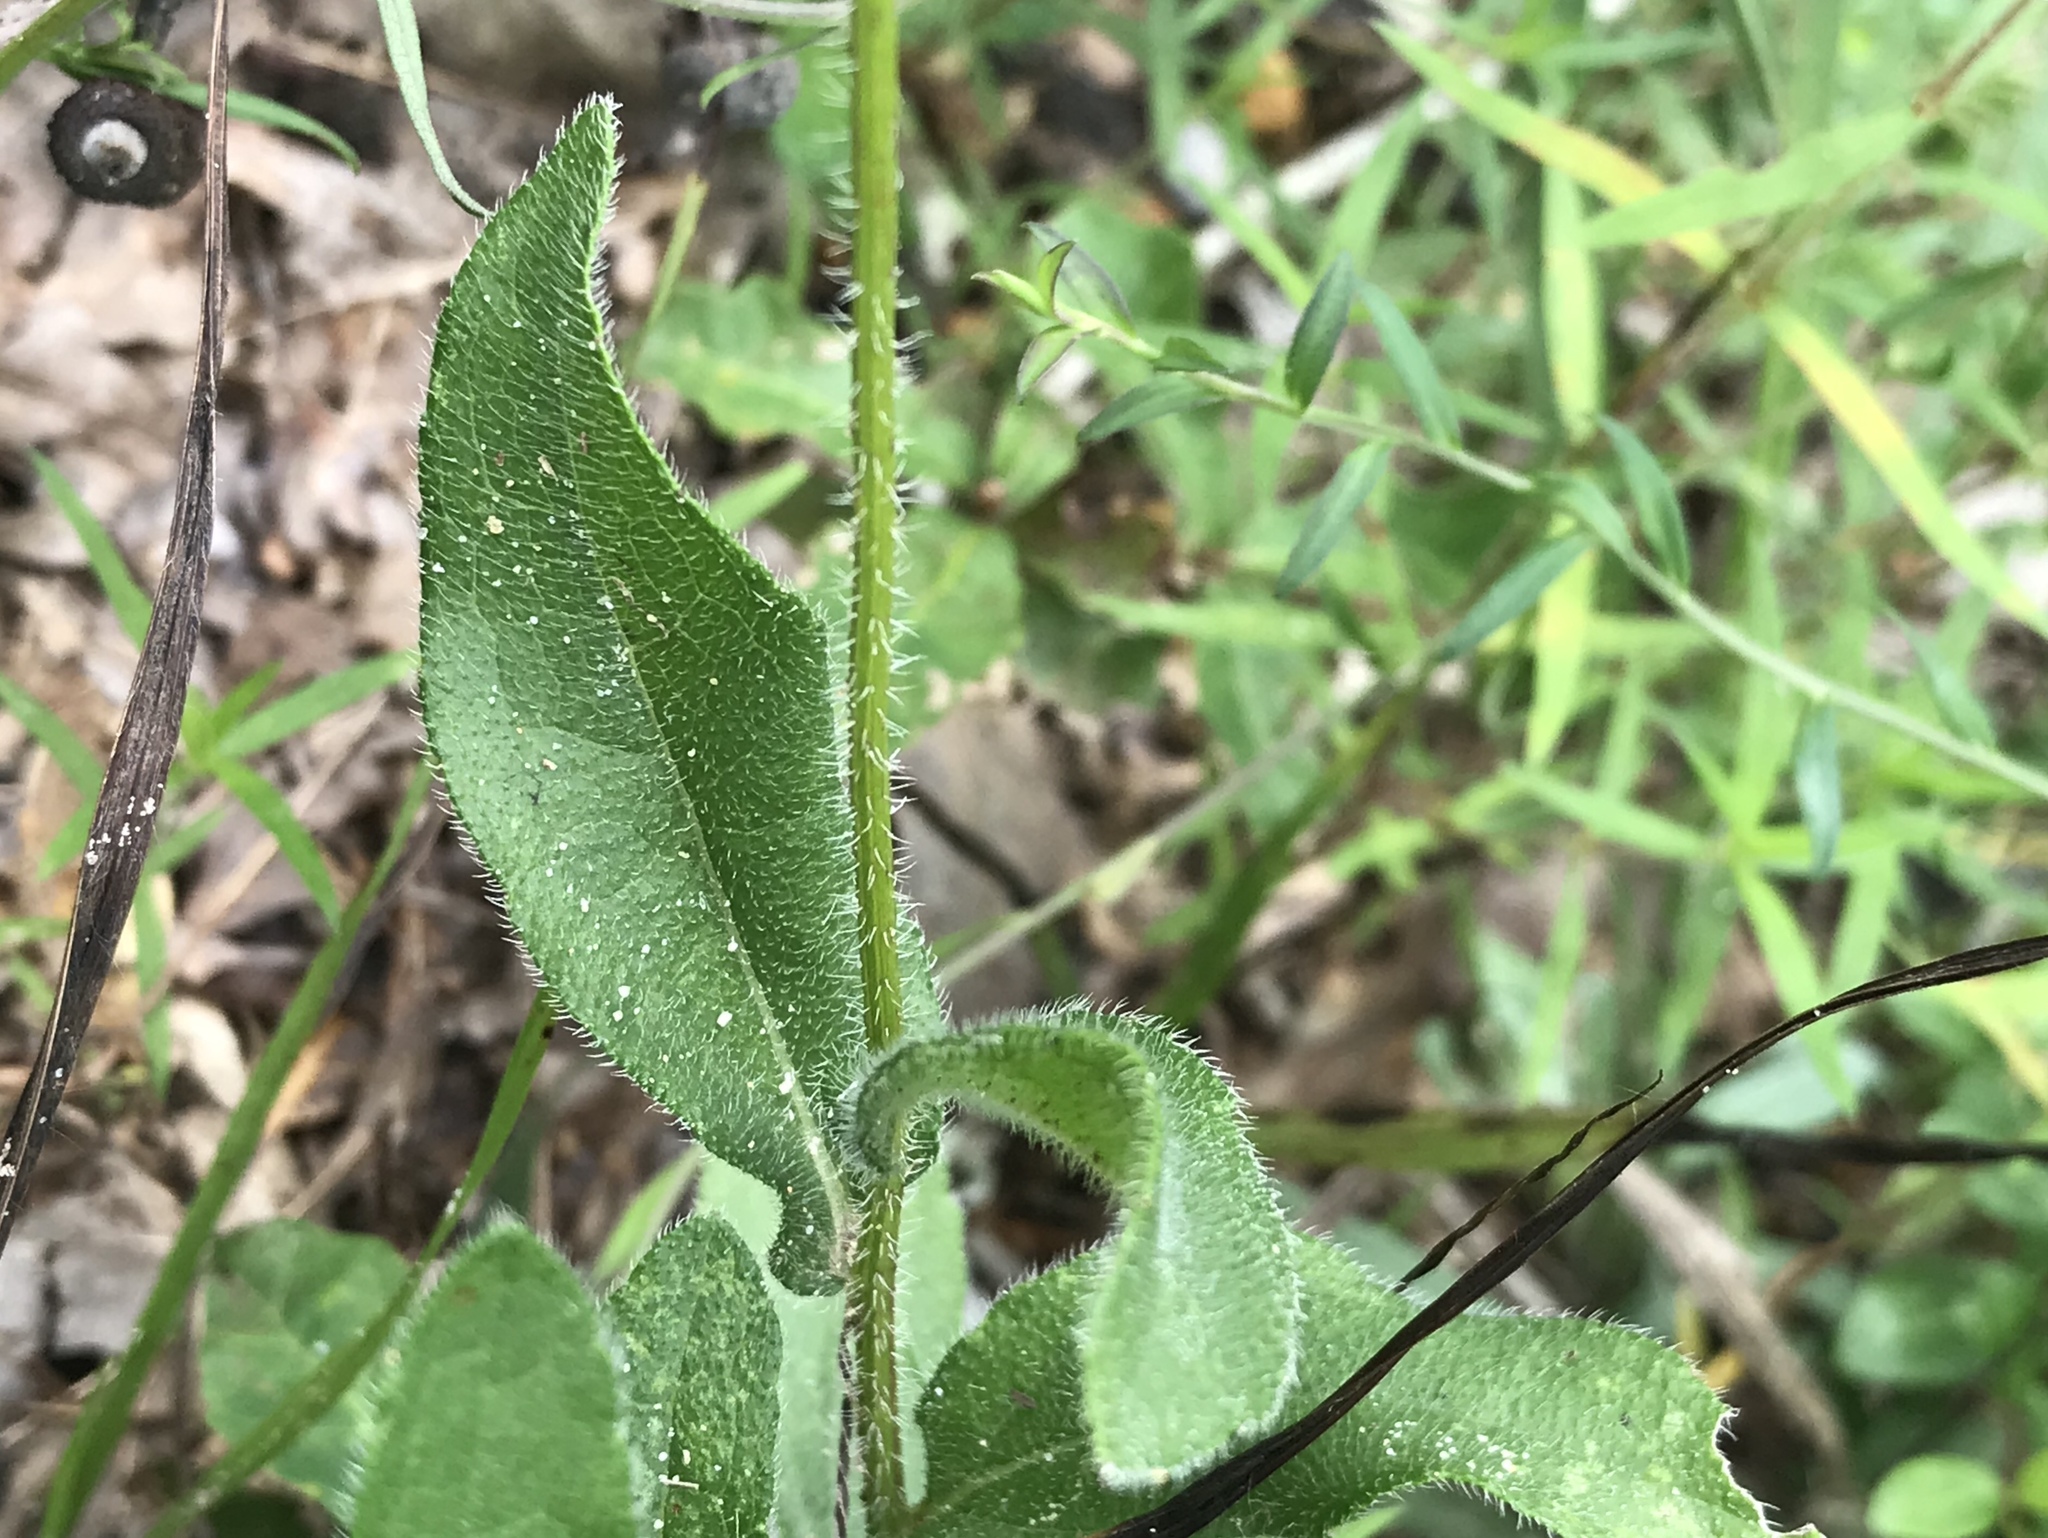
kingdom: Plantae
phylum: Tracheophyta
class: Magnoliopsida
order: Asterales
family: Asteraceae
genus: Rudbeckia
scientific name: Rudbeckia hirta
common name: Black-eyed-susan
